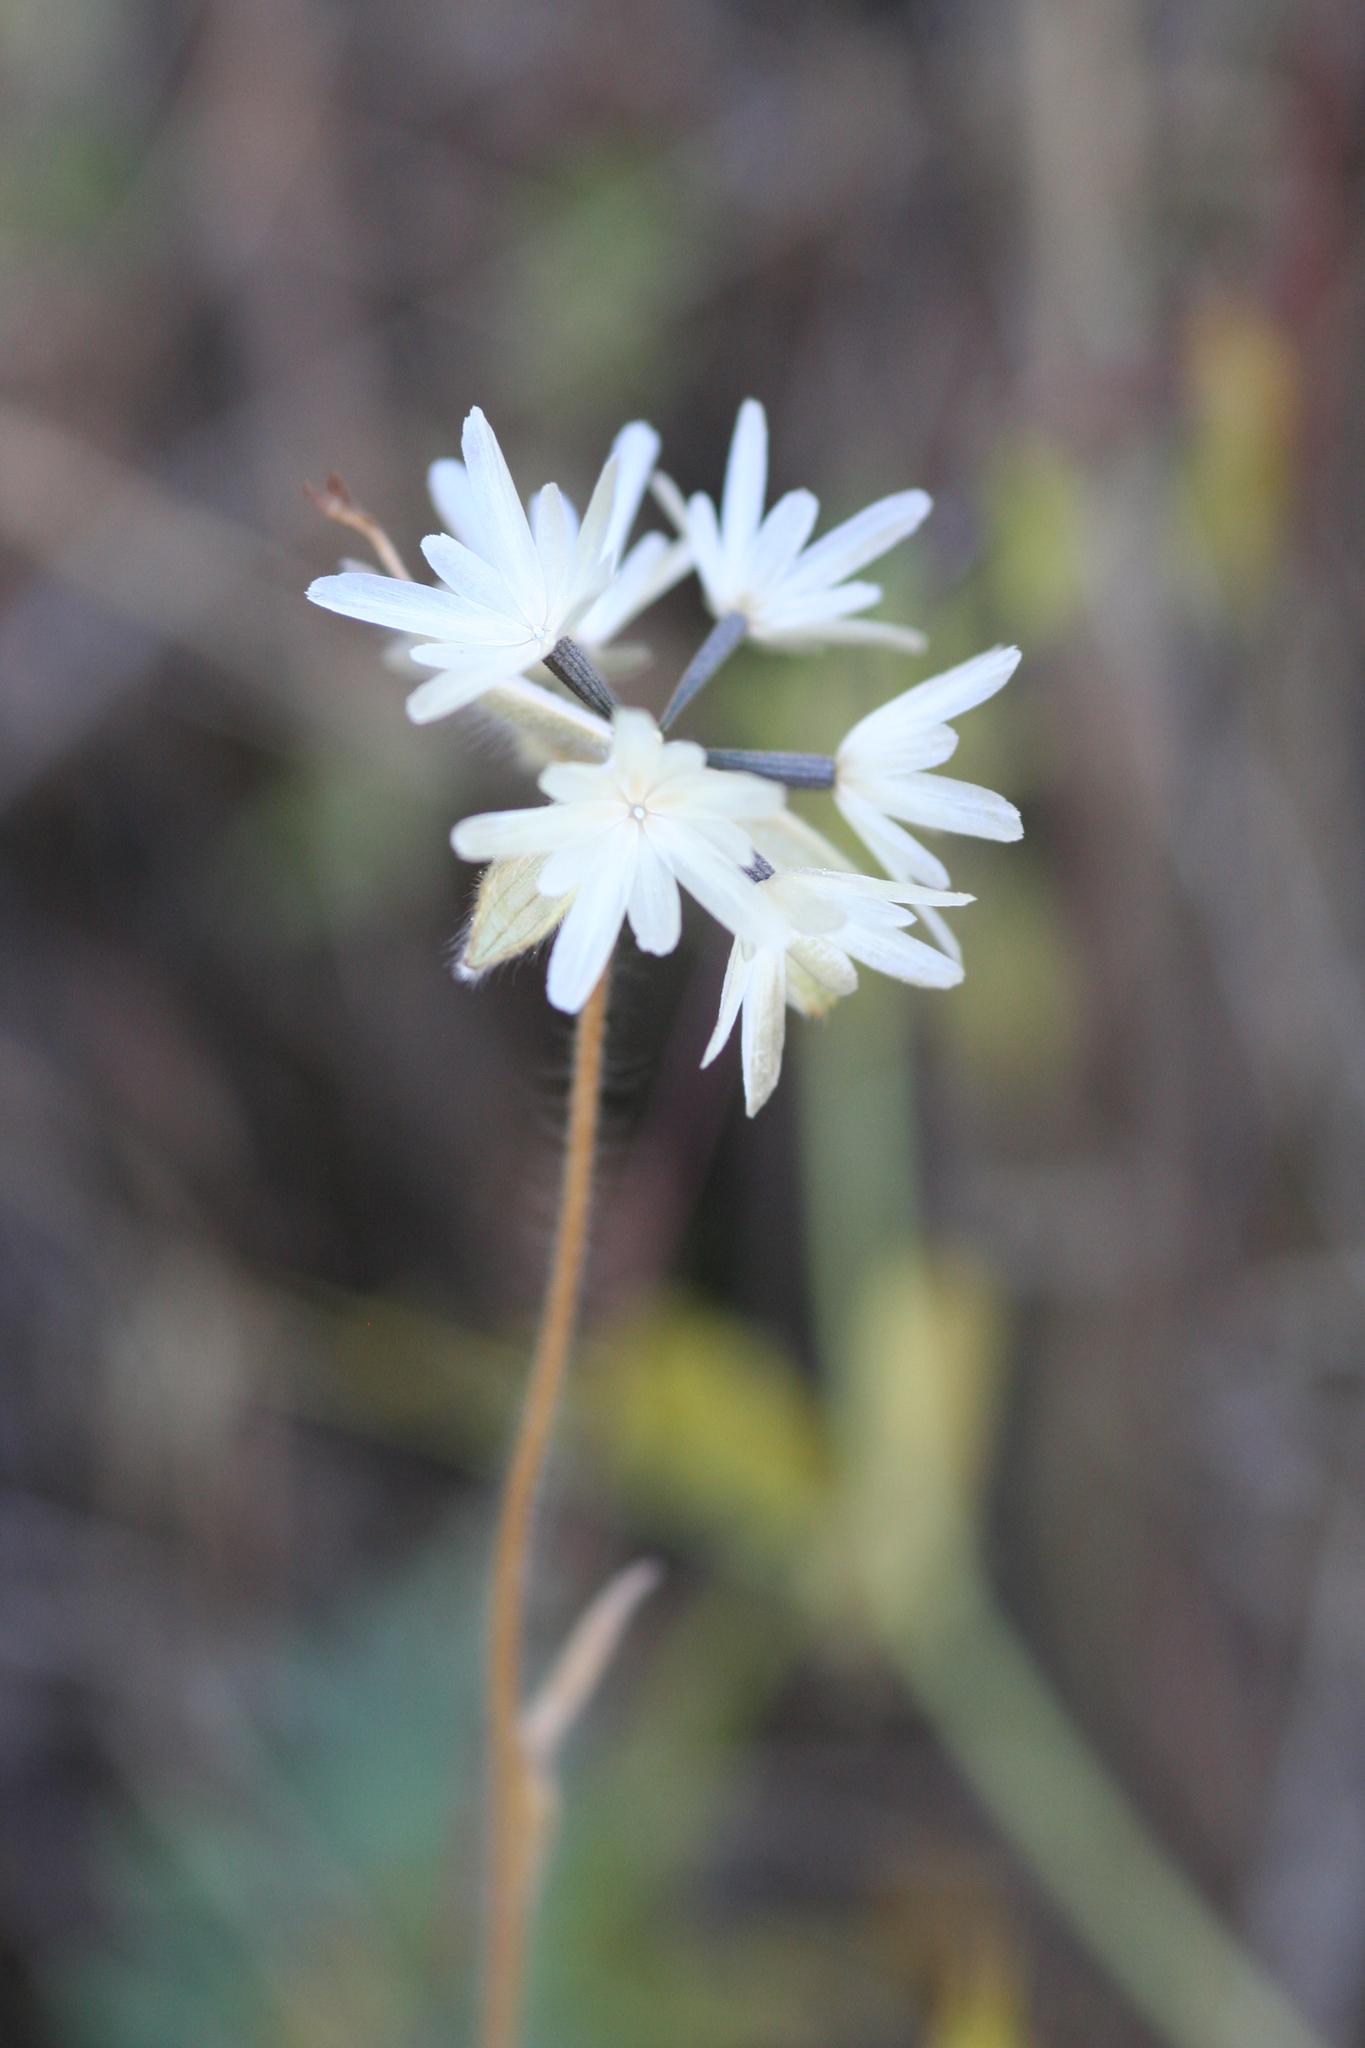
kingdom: Plantae
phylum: Tracheophyta
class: Magnoliopsida
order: Asterales
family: Asteraceae
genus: Achyrachaena
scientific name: Achyrachaena mollis
